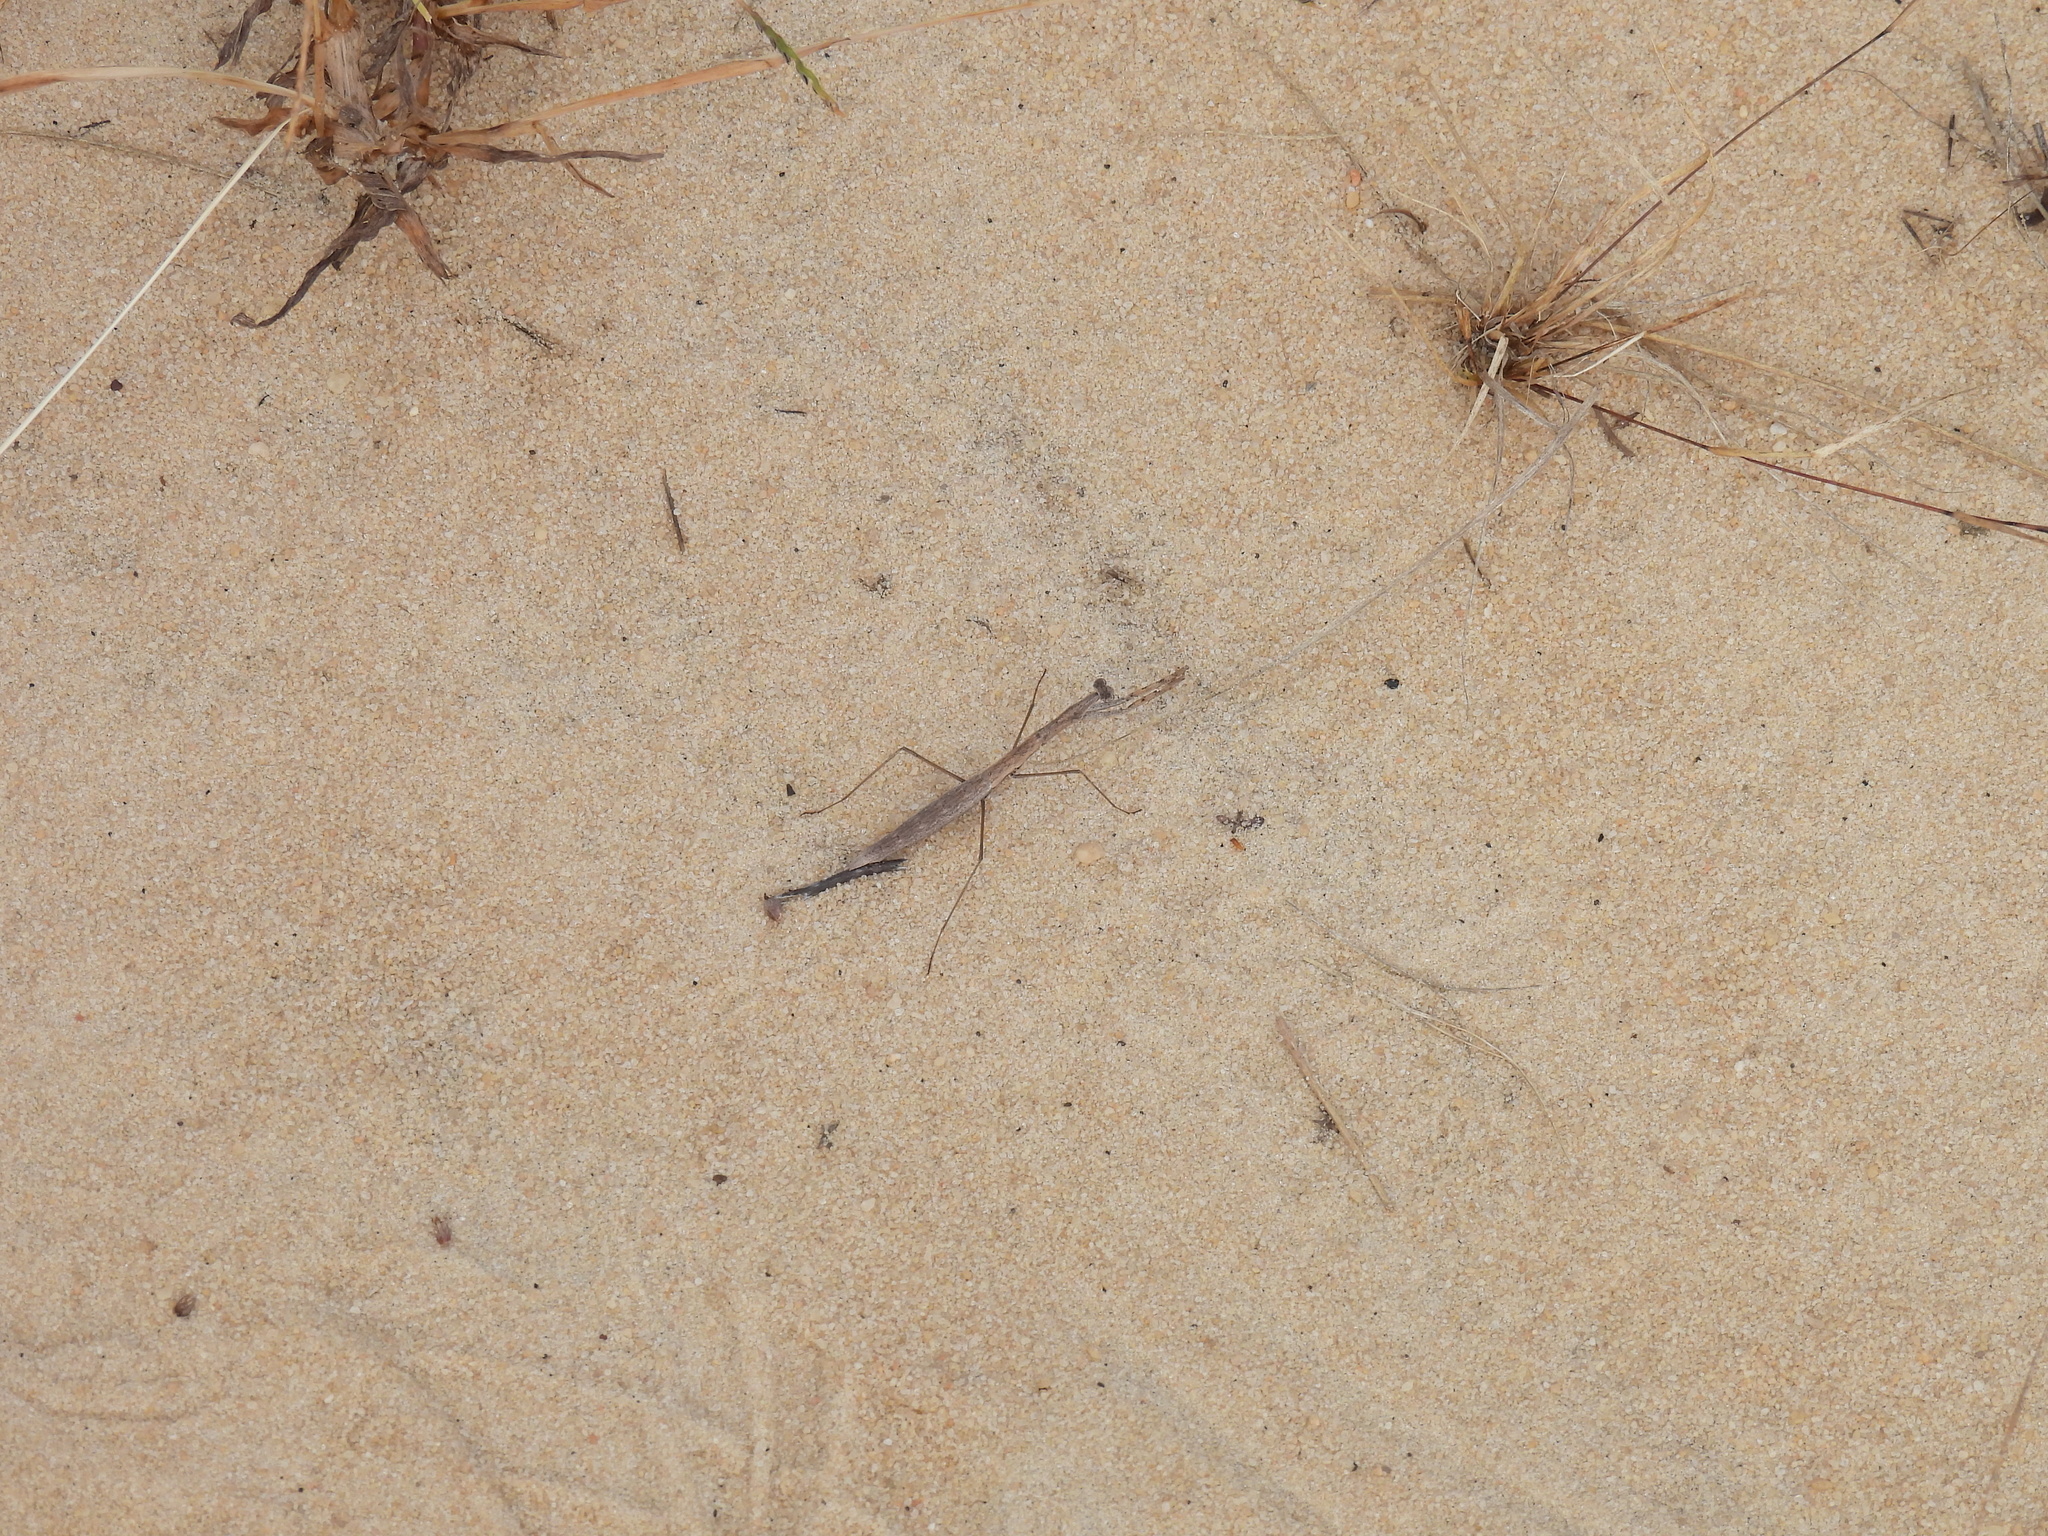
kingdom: Animalia
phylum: Arthropoda
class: Insecta
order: Mantodea
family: Thespidae
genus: Oligonicella
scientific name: Oligonicella scudderi
